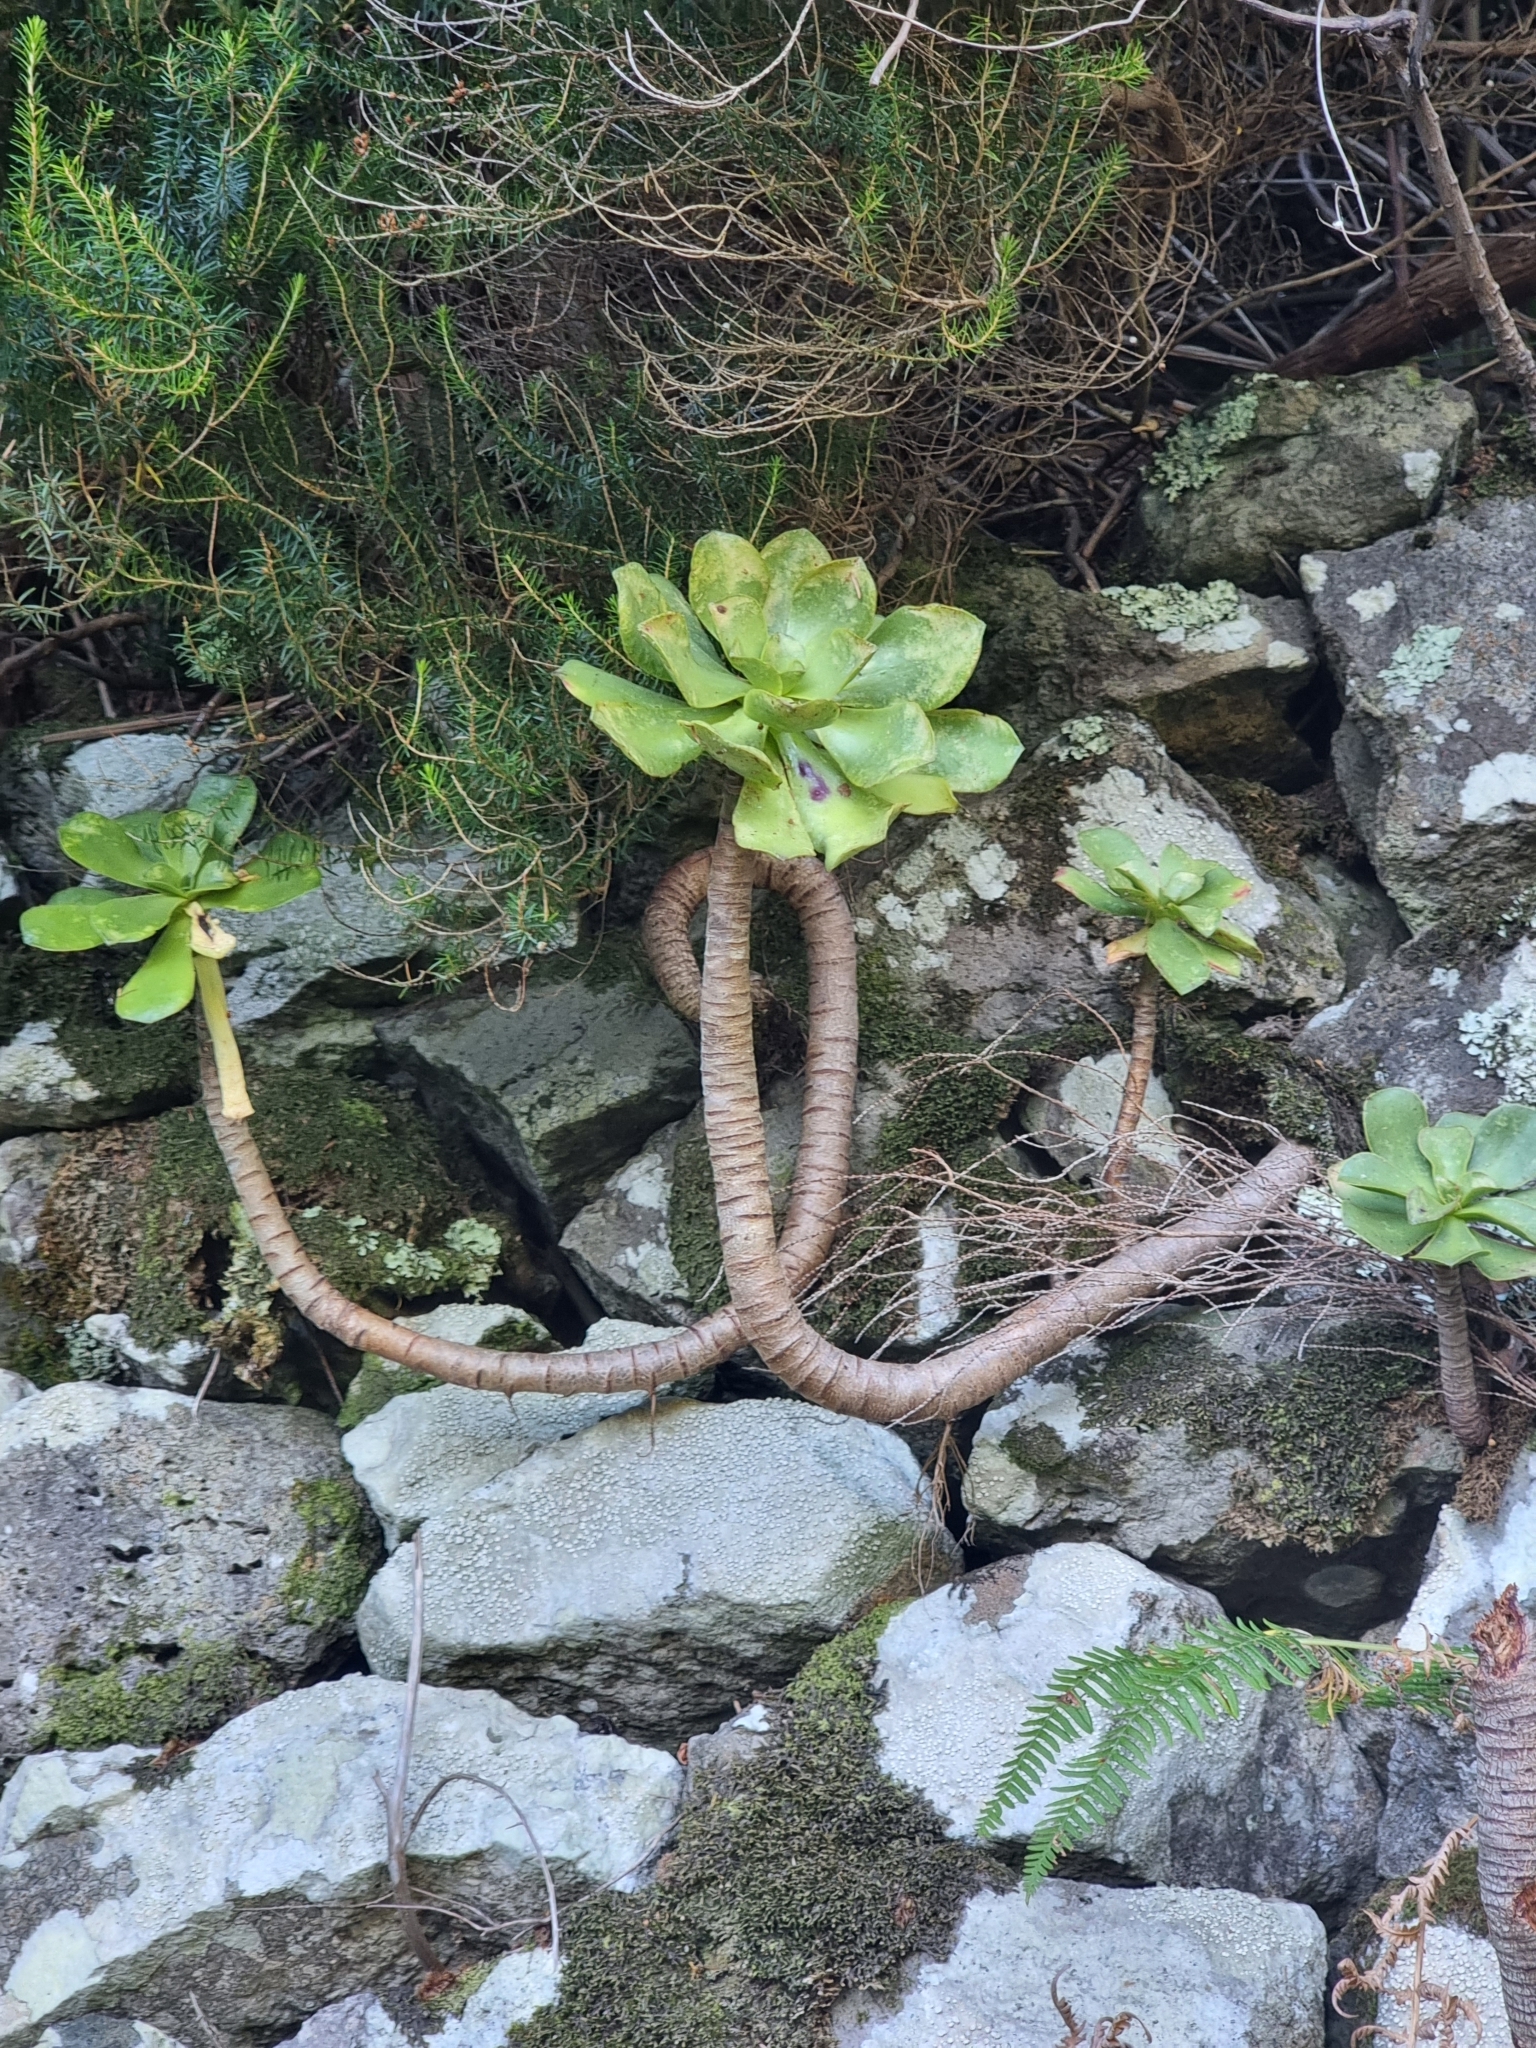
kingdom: Plantae
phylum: Tracheophyta
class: Magnoliopsida
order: Saxifragales
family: Crassulaceae
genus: Aeonium
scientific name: Aeonium glutinosum
